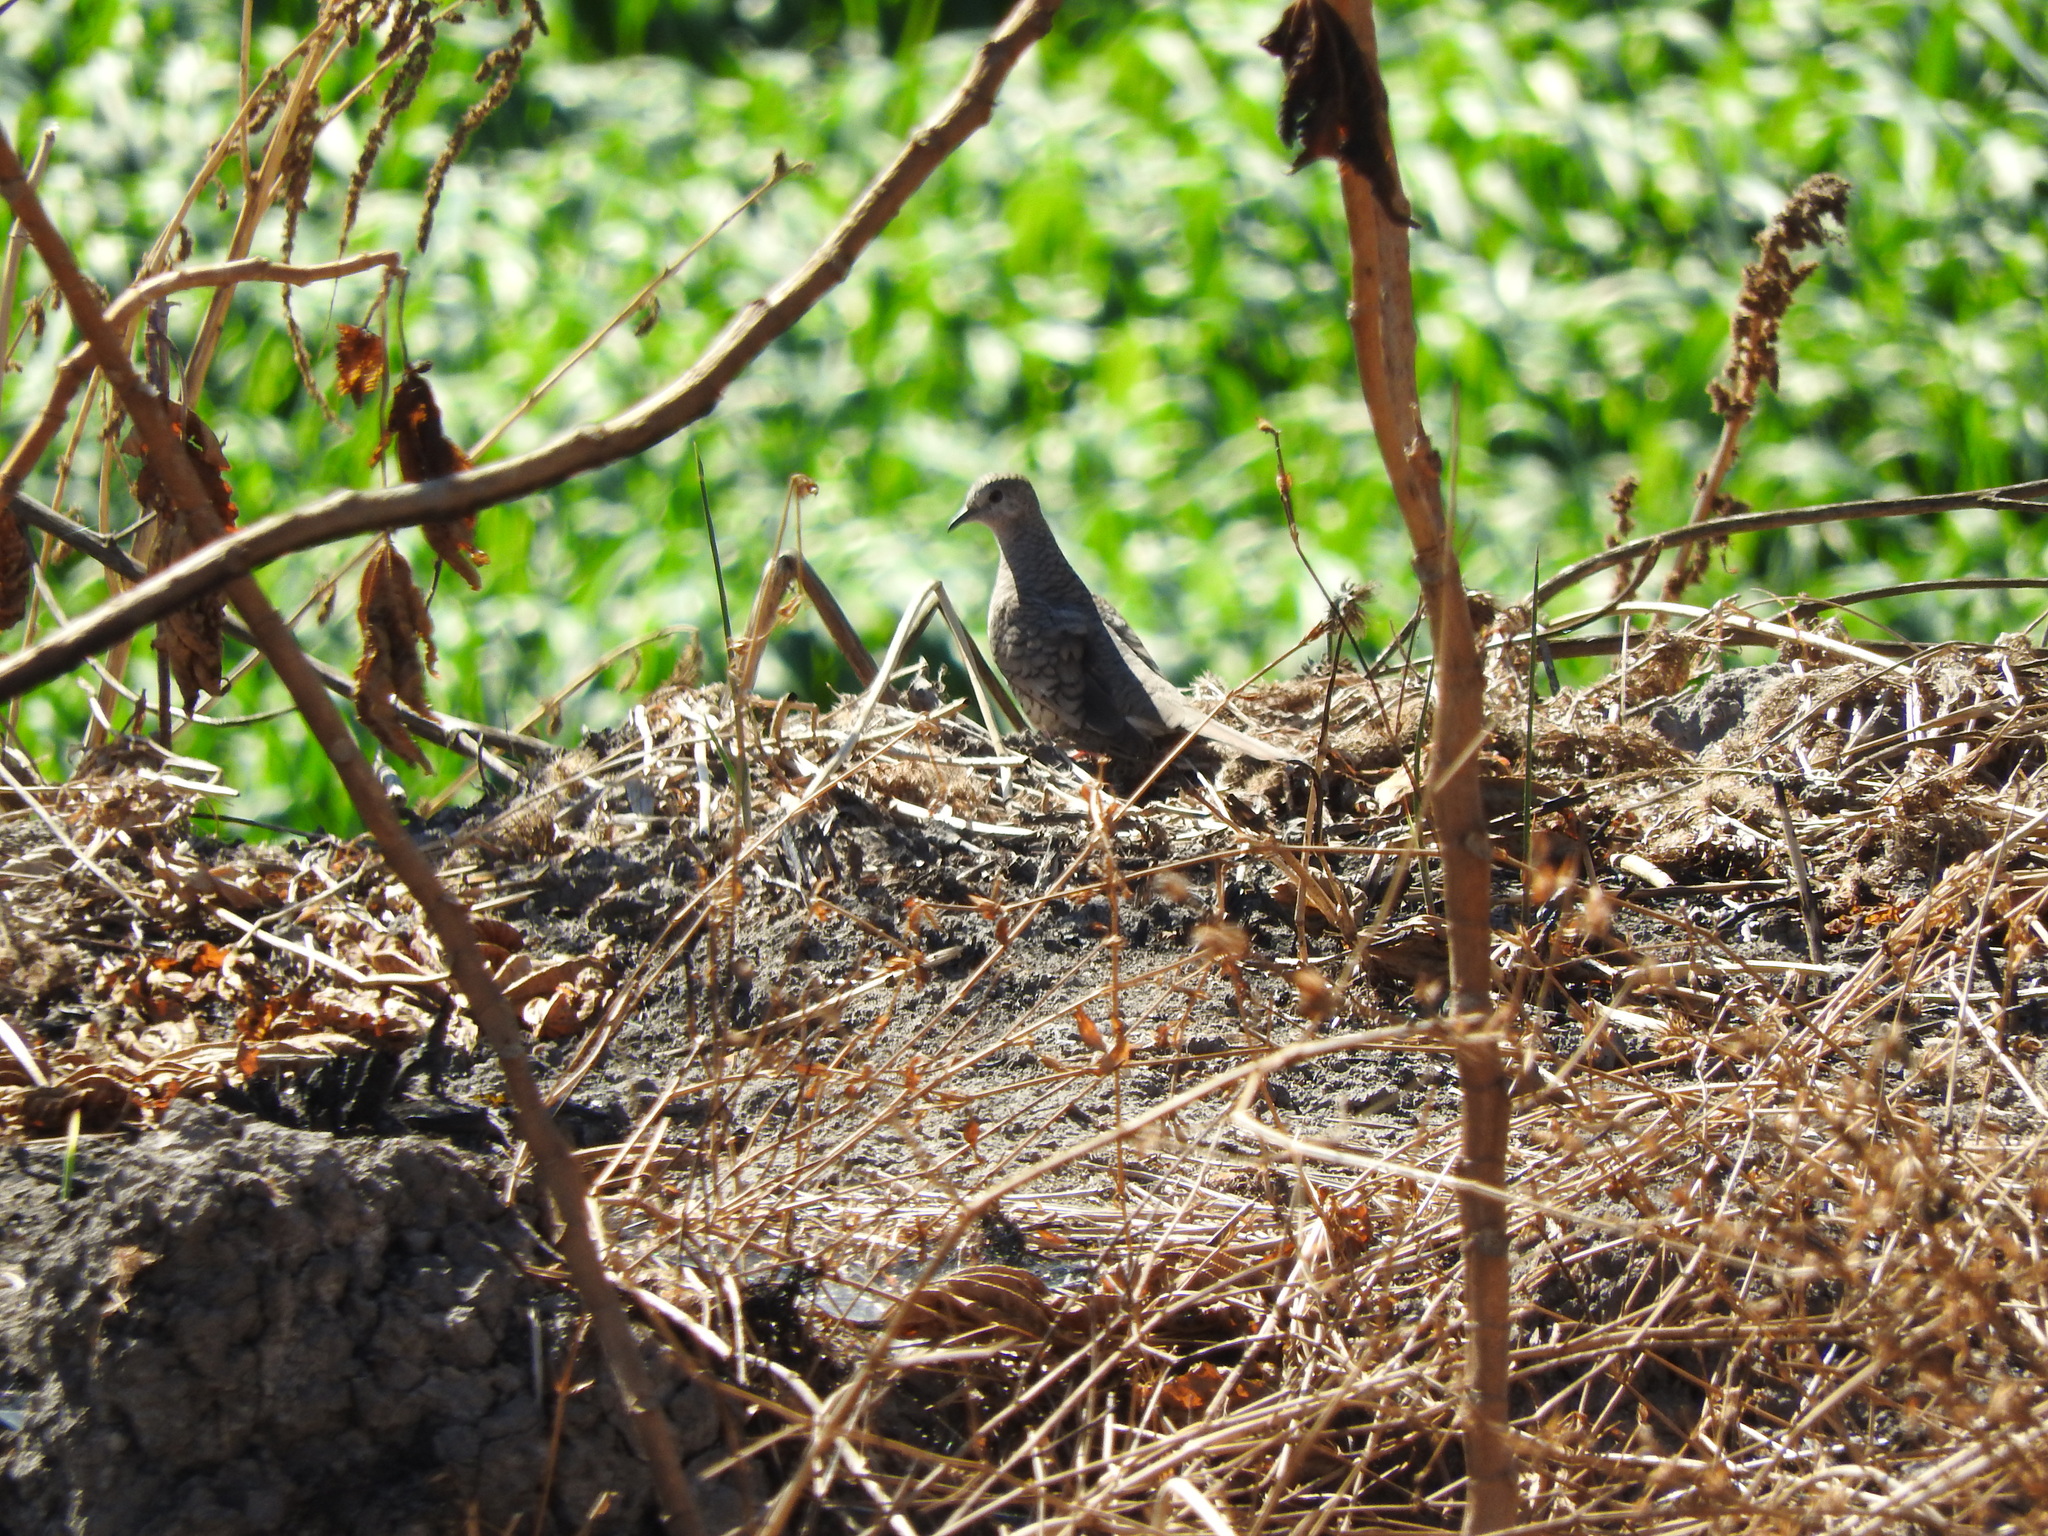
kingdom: Animalia
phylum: Chordata
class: Aves
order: Columbiformes
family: Columbidae
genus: Columbina
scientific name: Columbina inca
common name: Inca dove
